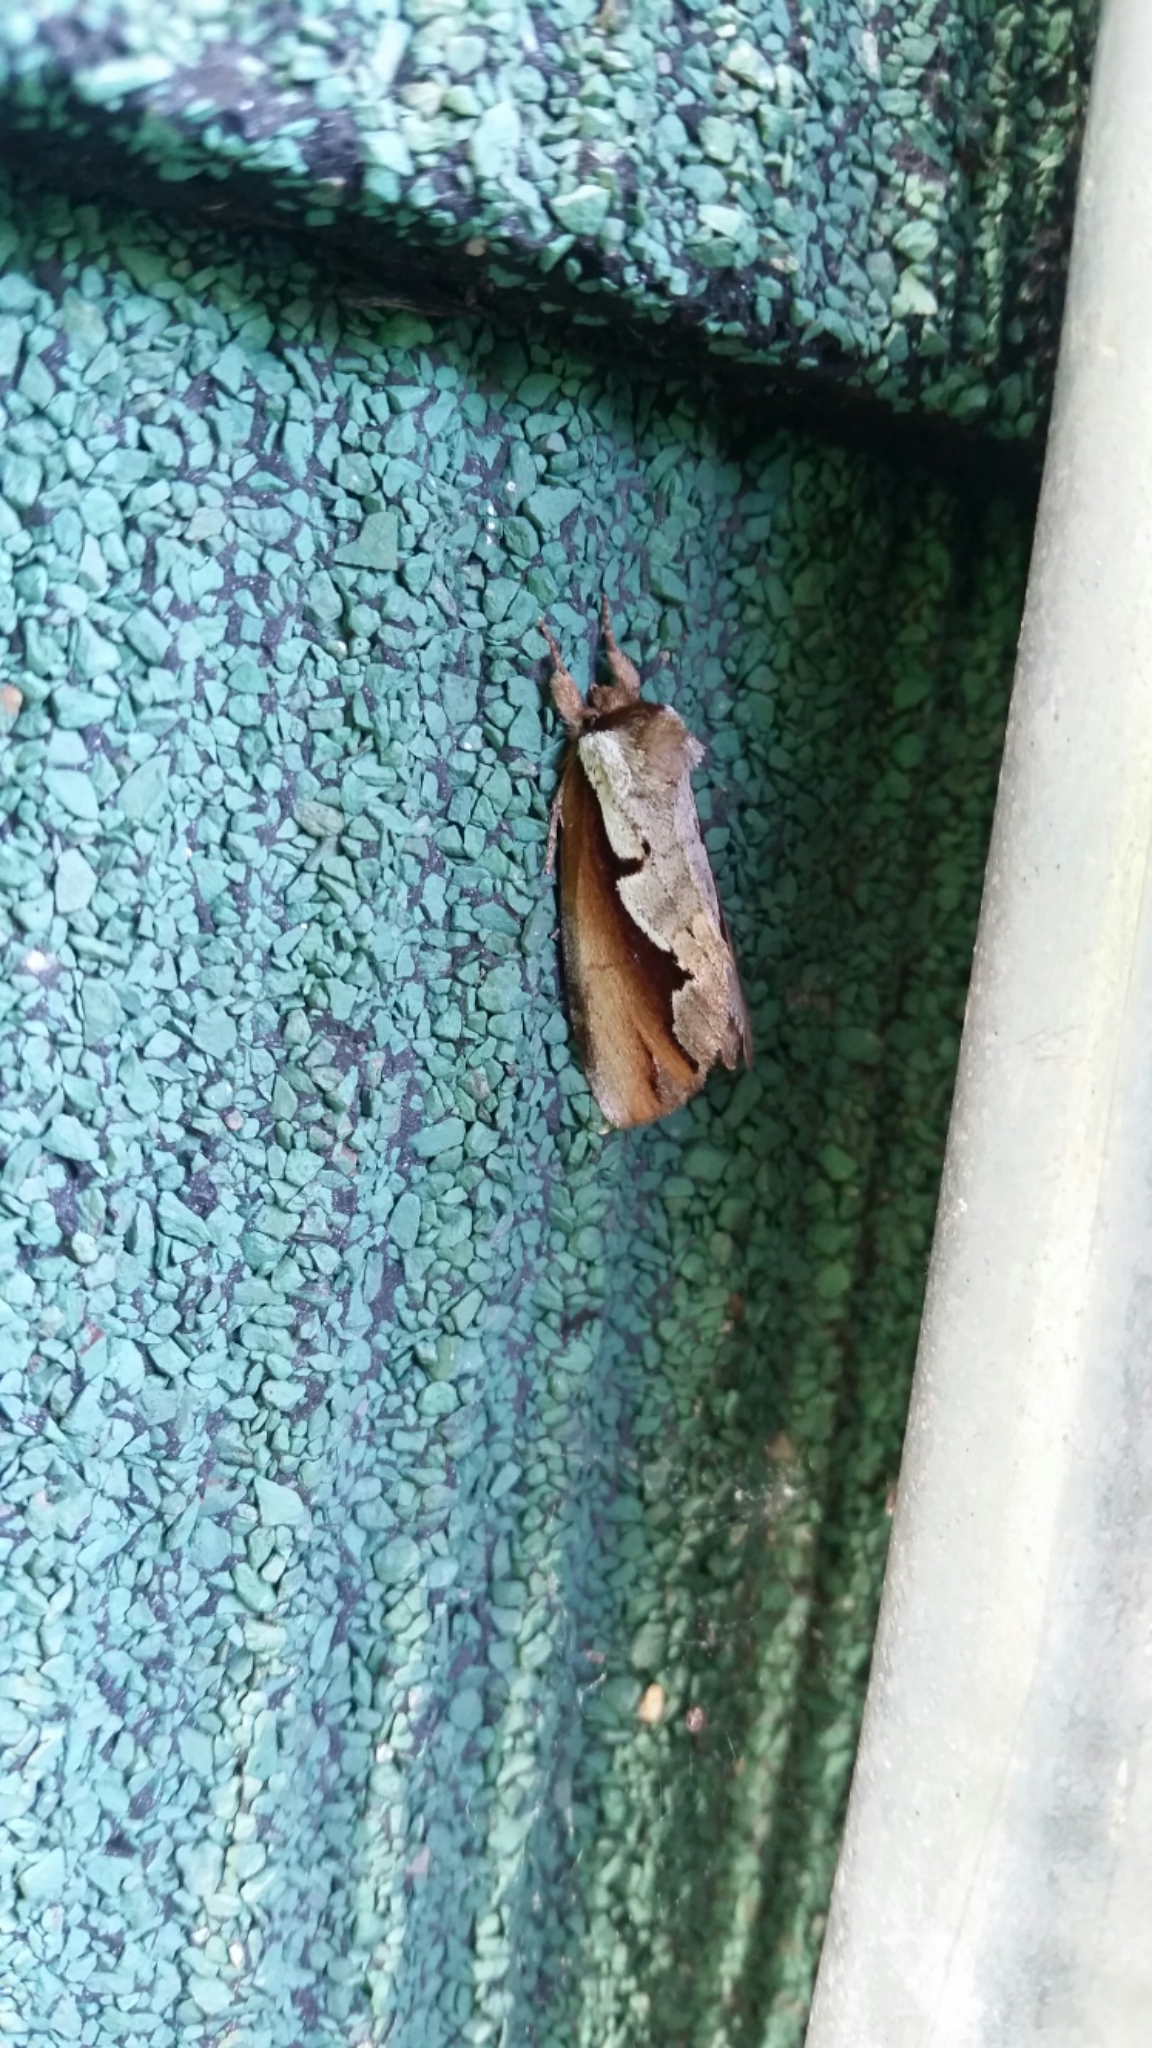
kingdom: Animalia
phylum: Arthropoda
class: Insecta
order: Lepidoptera
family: Notodontidae
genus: Nerice
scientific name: Nerice bidentata
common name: Double-toothed prominent
